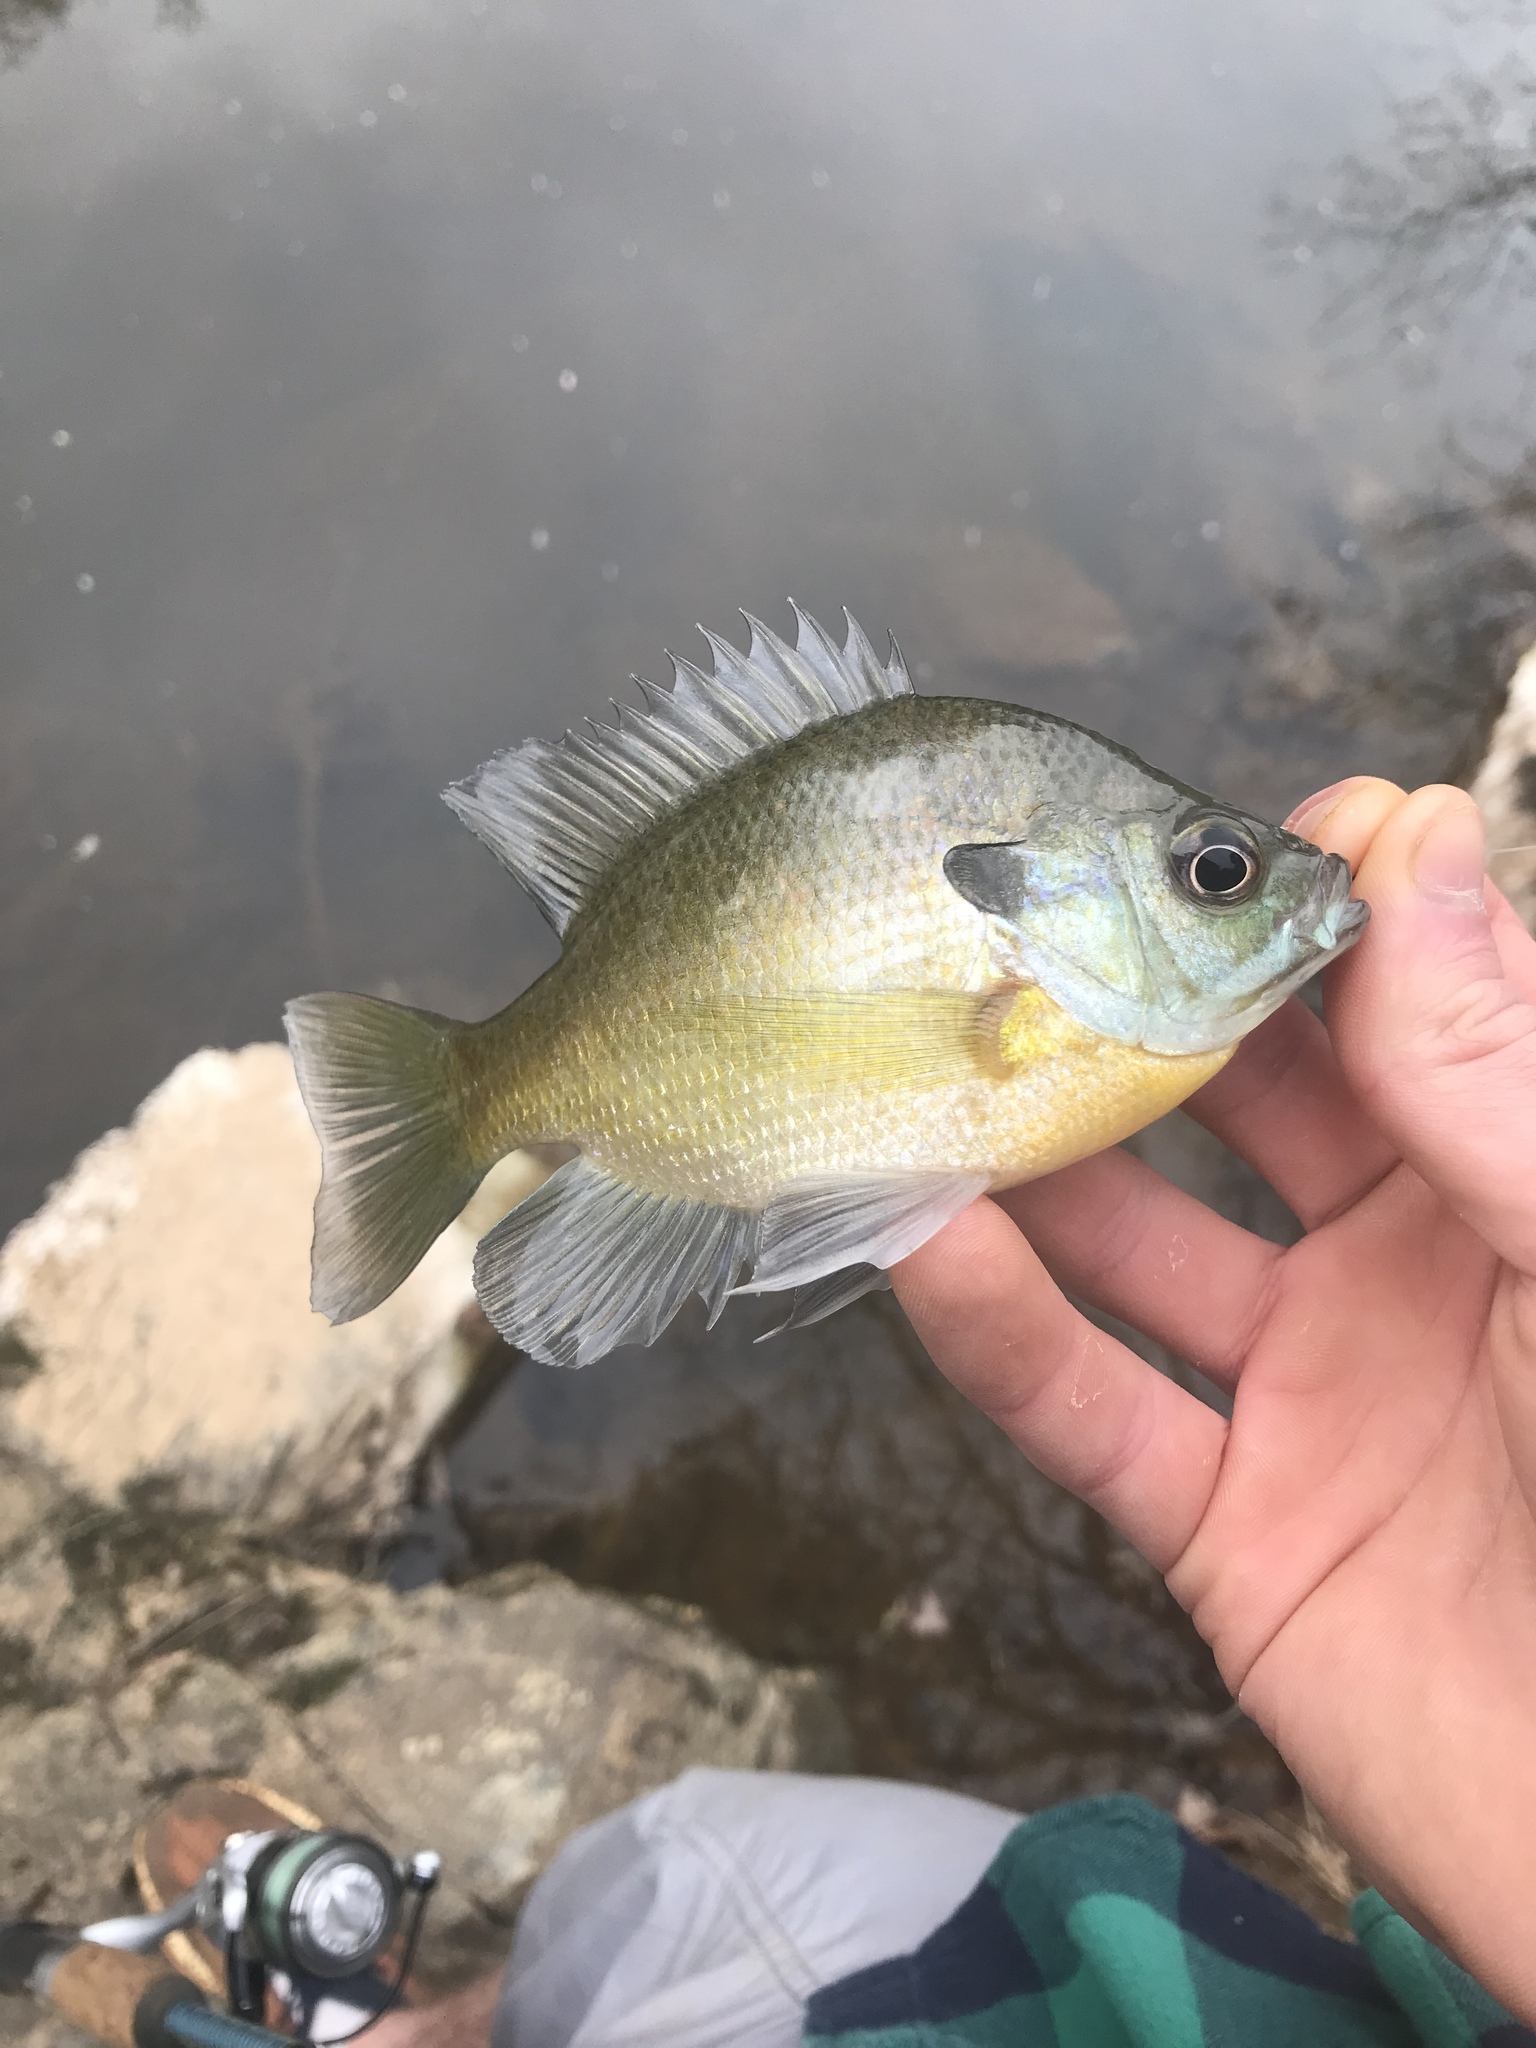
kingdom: Animalia
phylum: Chordata
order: Perciformes
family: Centrarchidae
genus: Lepomis
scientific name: Lepomis macrochirus
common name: Bluegill
